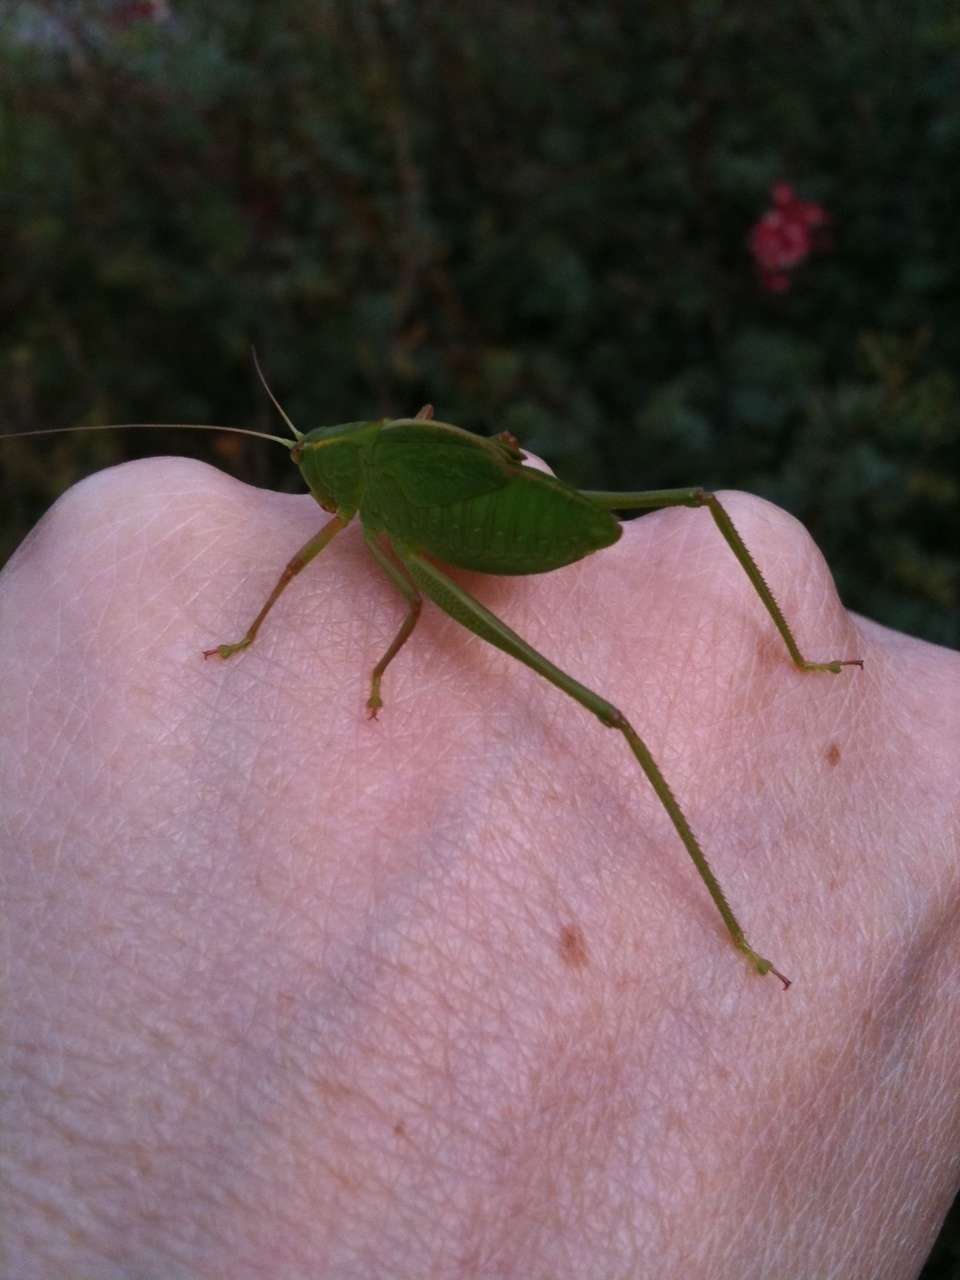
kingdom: Animalia
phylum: Arthropoda
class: Insecta
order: Orthoptera
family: Tettigoniidae
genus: Caedicia
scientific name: Caedicia simplex
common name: Common garden katydid
